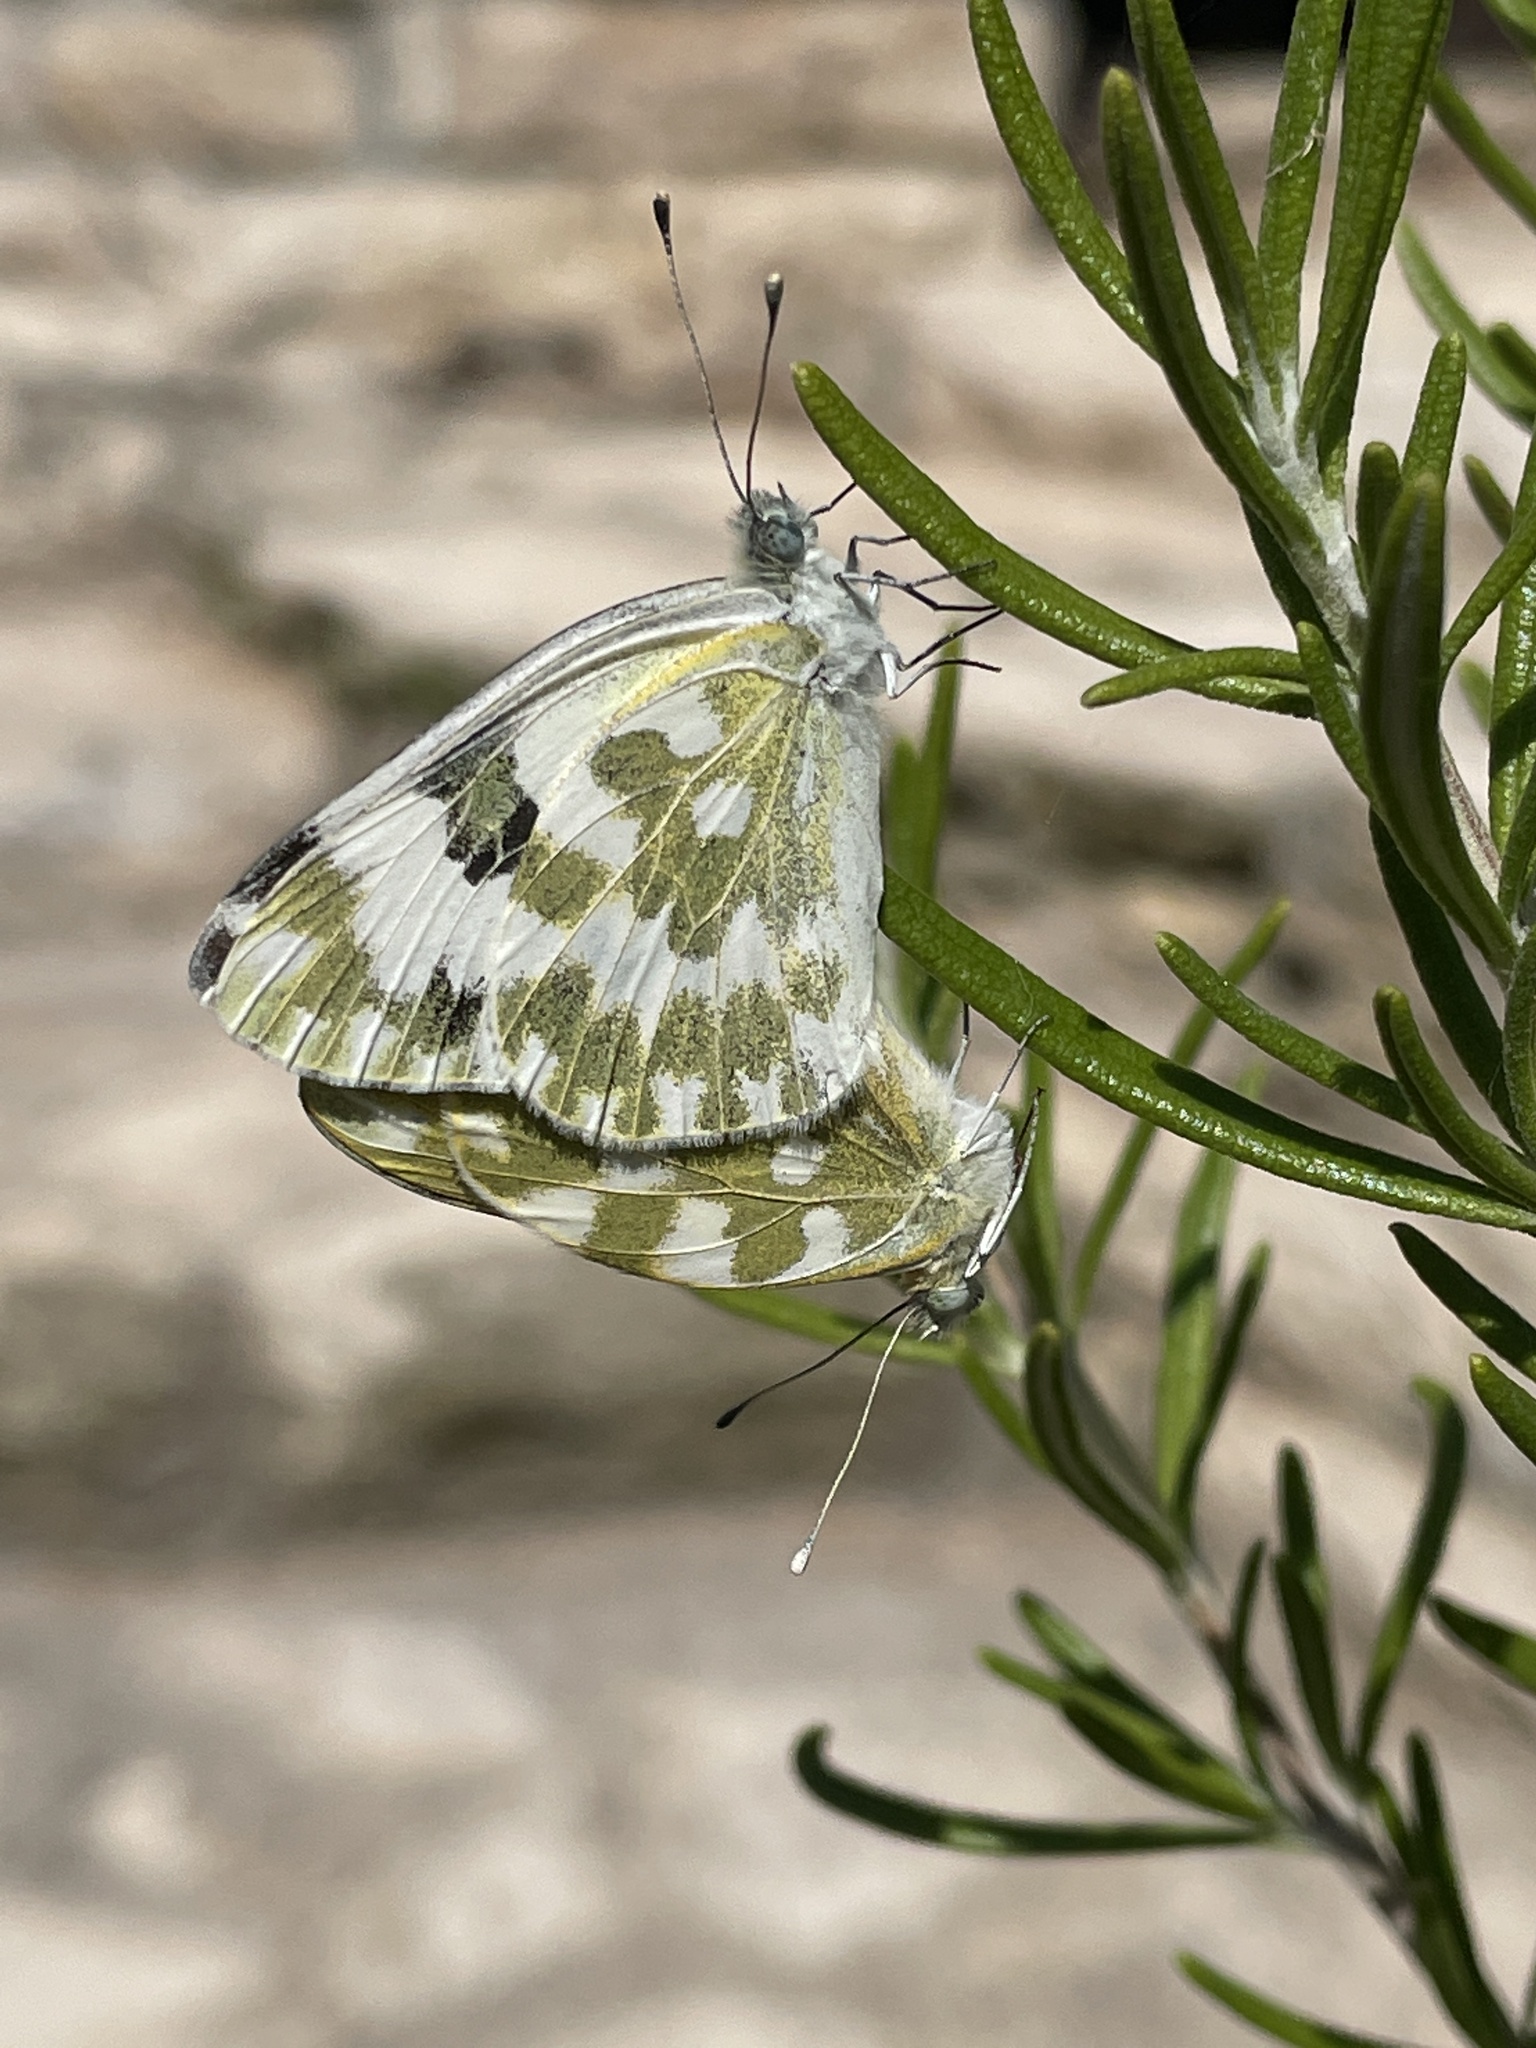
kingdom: Animalia
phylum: Arthropoda
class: Insecta
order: Lepidoptera
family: Pieridae
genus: Pontia
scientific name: Pontia edusa
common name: Eastern bath white
